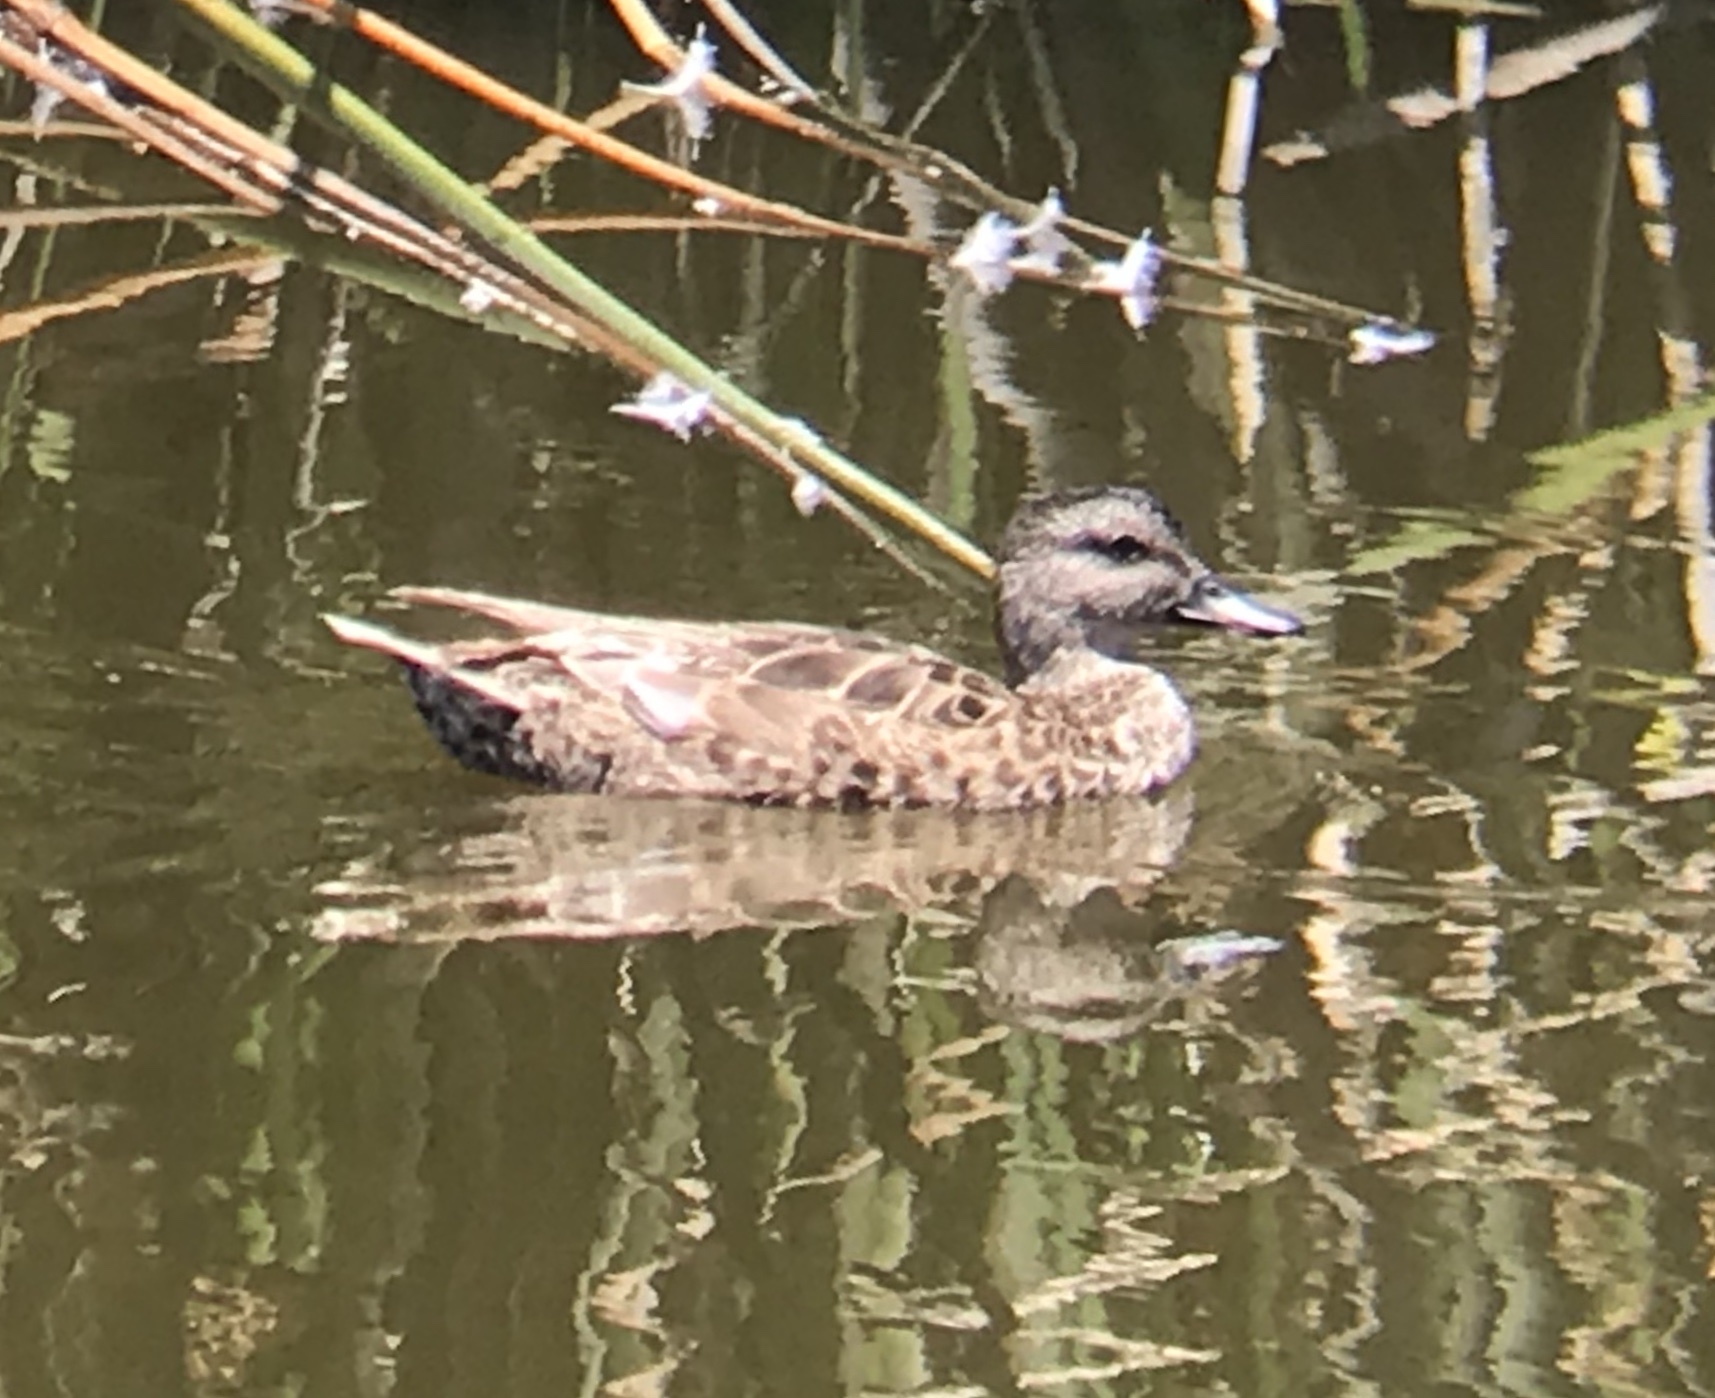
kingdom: Animalia
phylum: Chordata
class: Aves
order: Anseriformes
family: Anatidae
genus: Mareca
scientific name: Mareca strepera
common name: Gadwall
